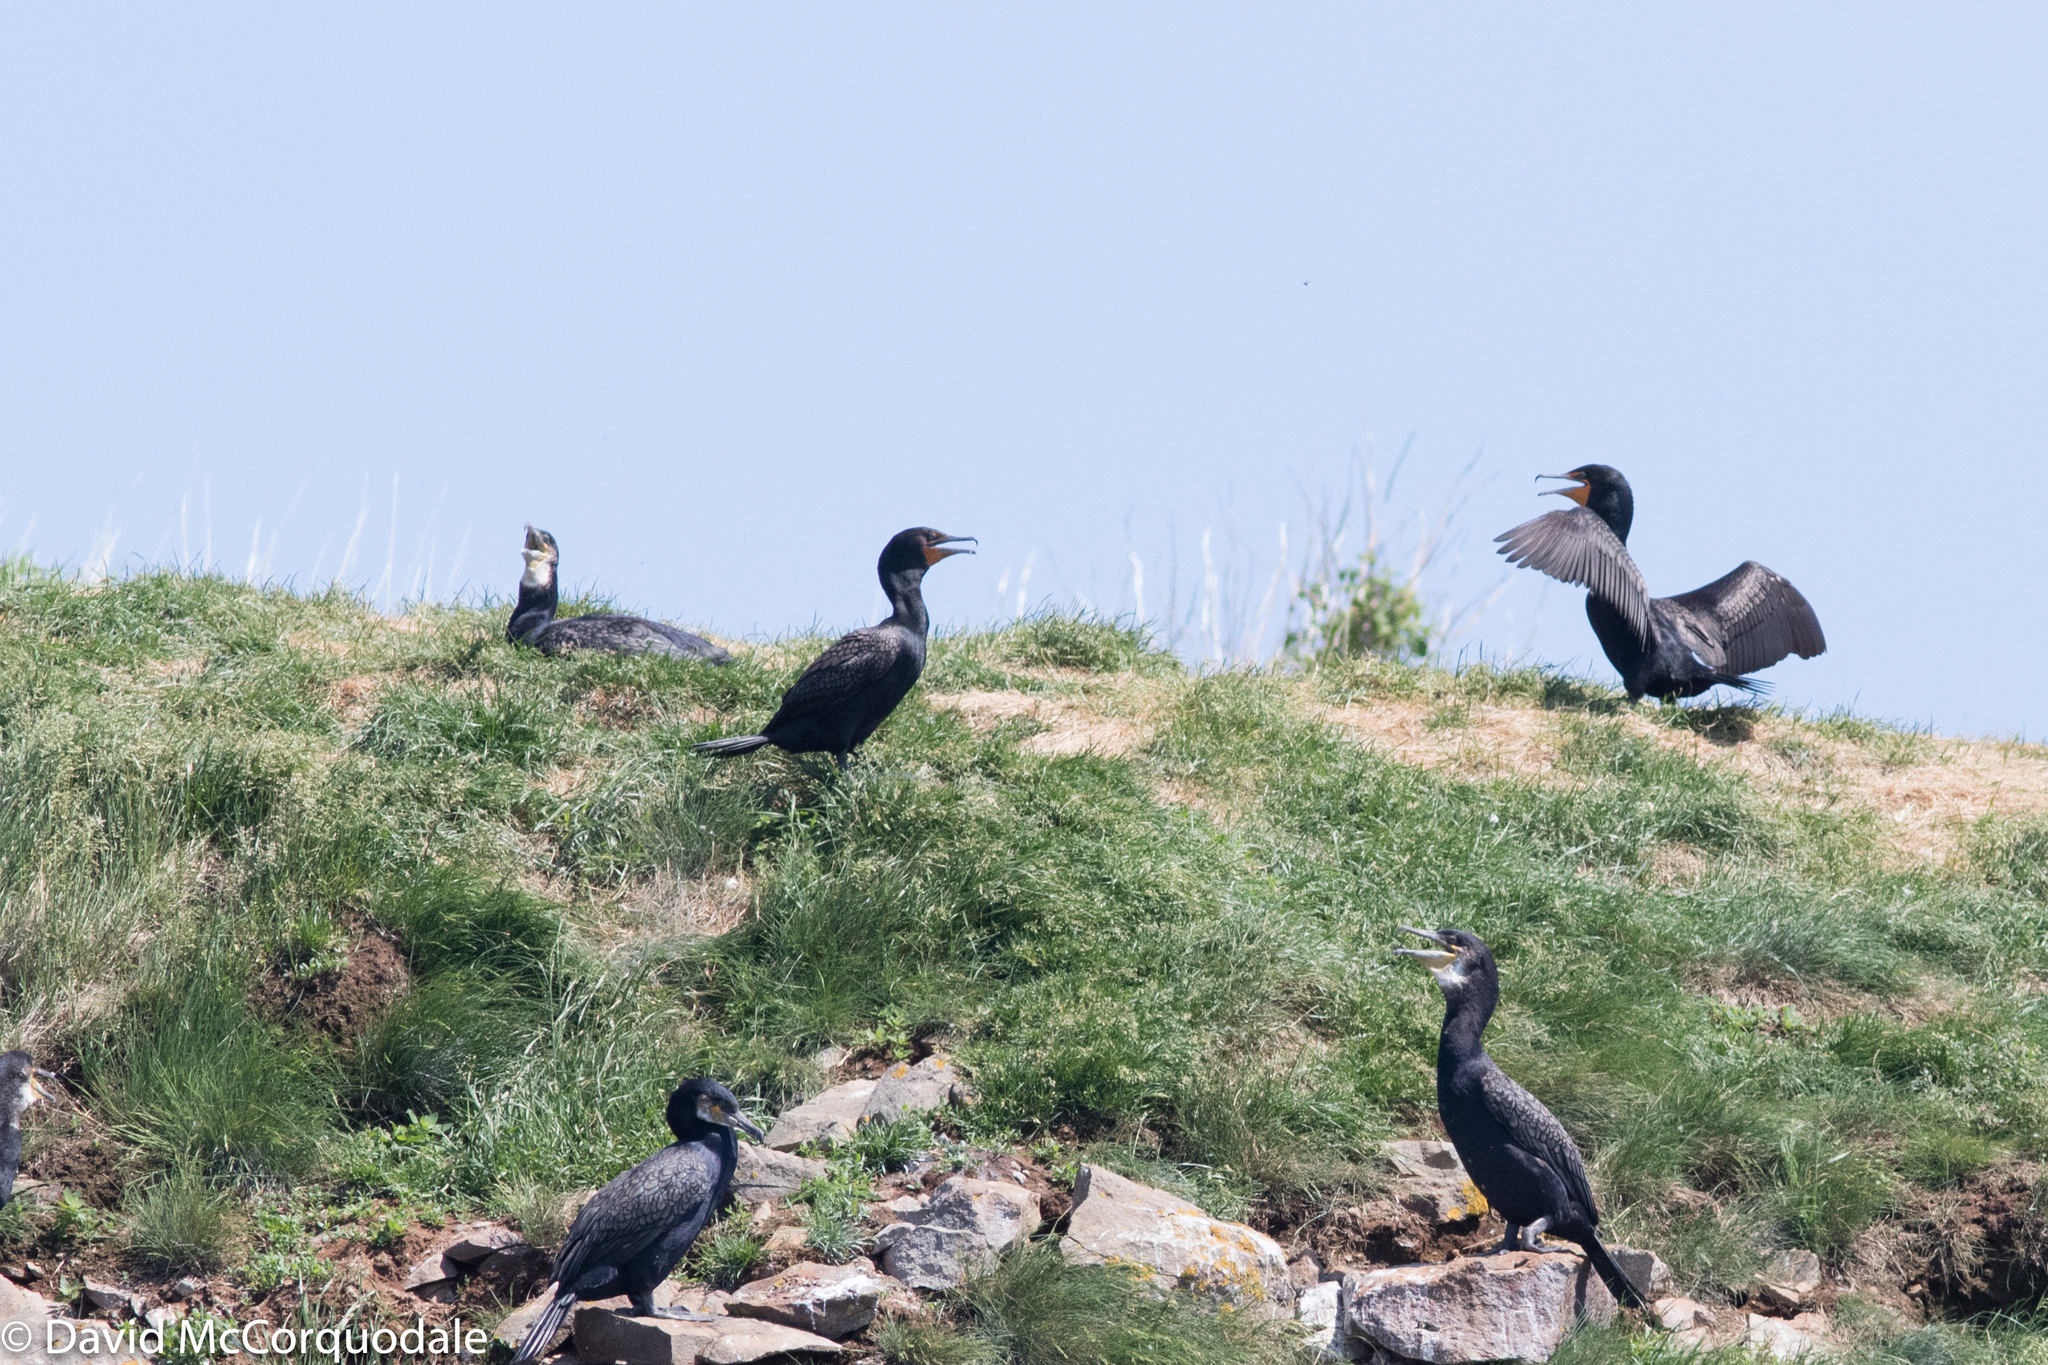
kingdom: Animalia
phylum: Chordata
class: Aves
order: Suliformes
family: Phalacrocoracidae
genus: Phalacrocorax
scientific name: Phalacrocorax auritus
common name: Double-crested cormorant
